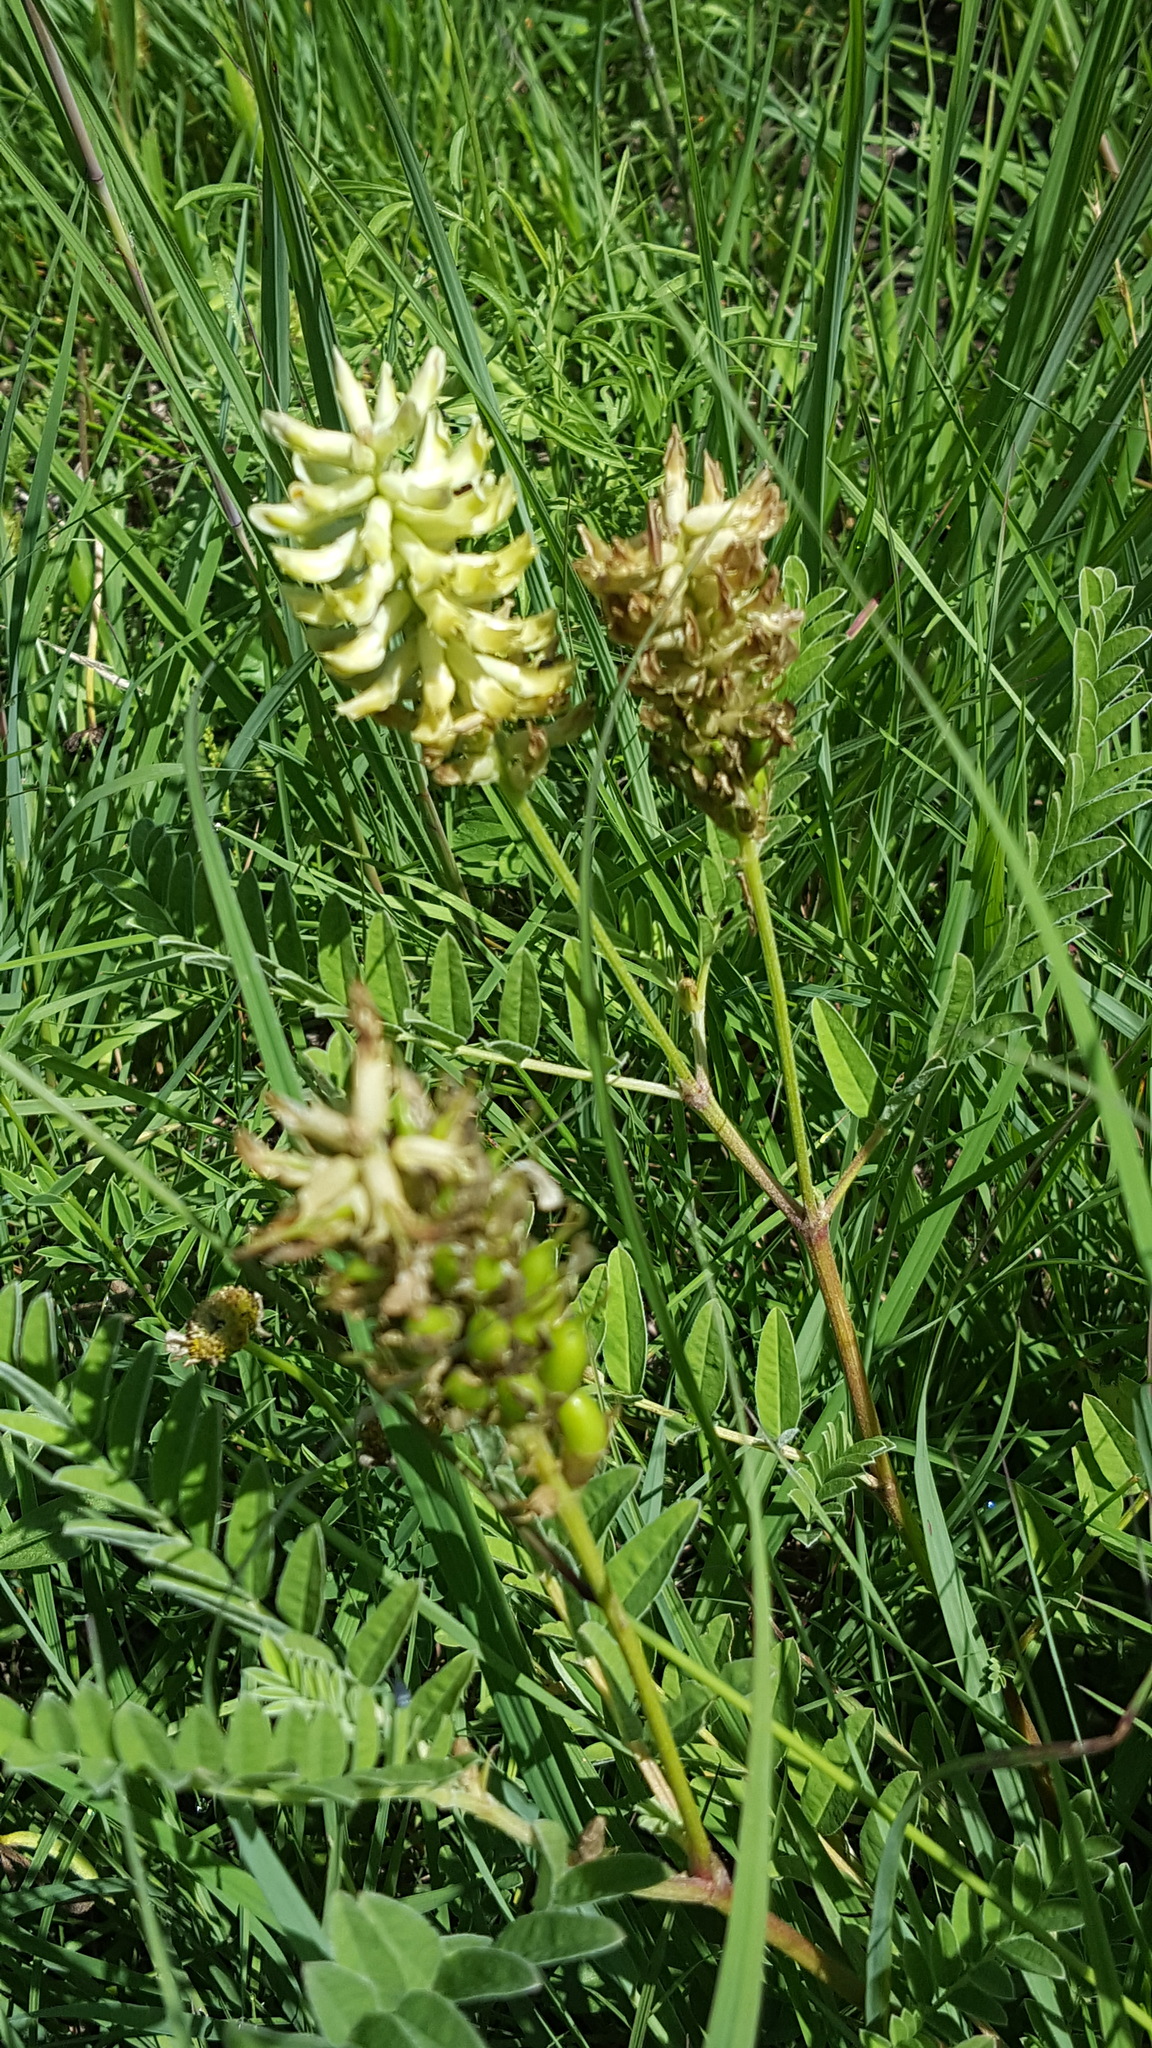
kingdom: Plantae
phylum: Tracheophyta
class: Magnoliopsida
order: Fabales
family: Fabaceae
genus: Astragalus
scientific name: Astragalus canadensis
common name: Canada milk-vetch
